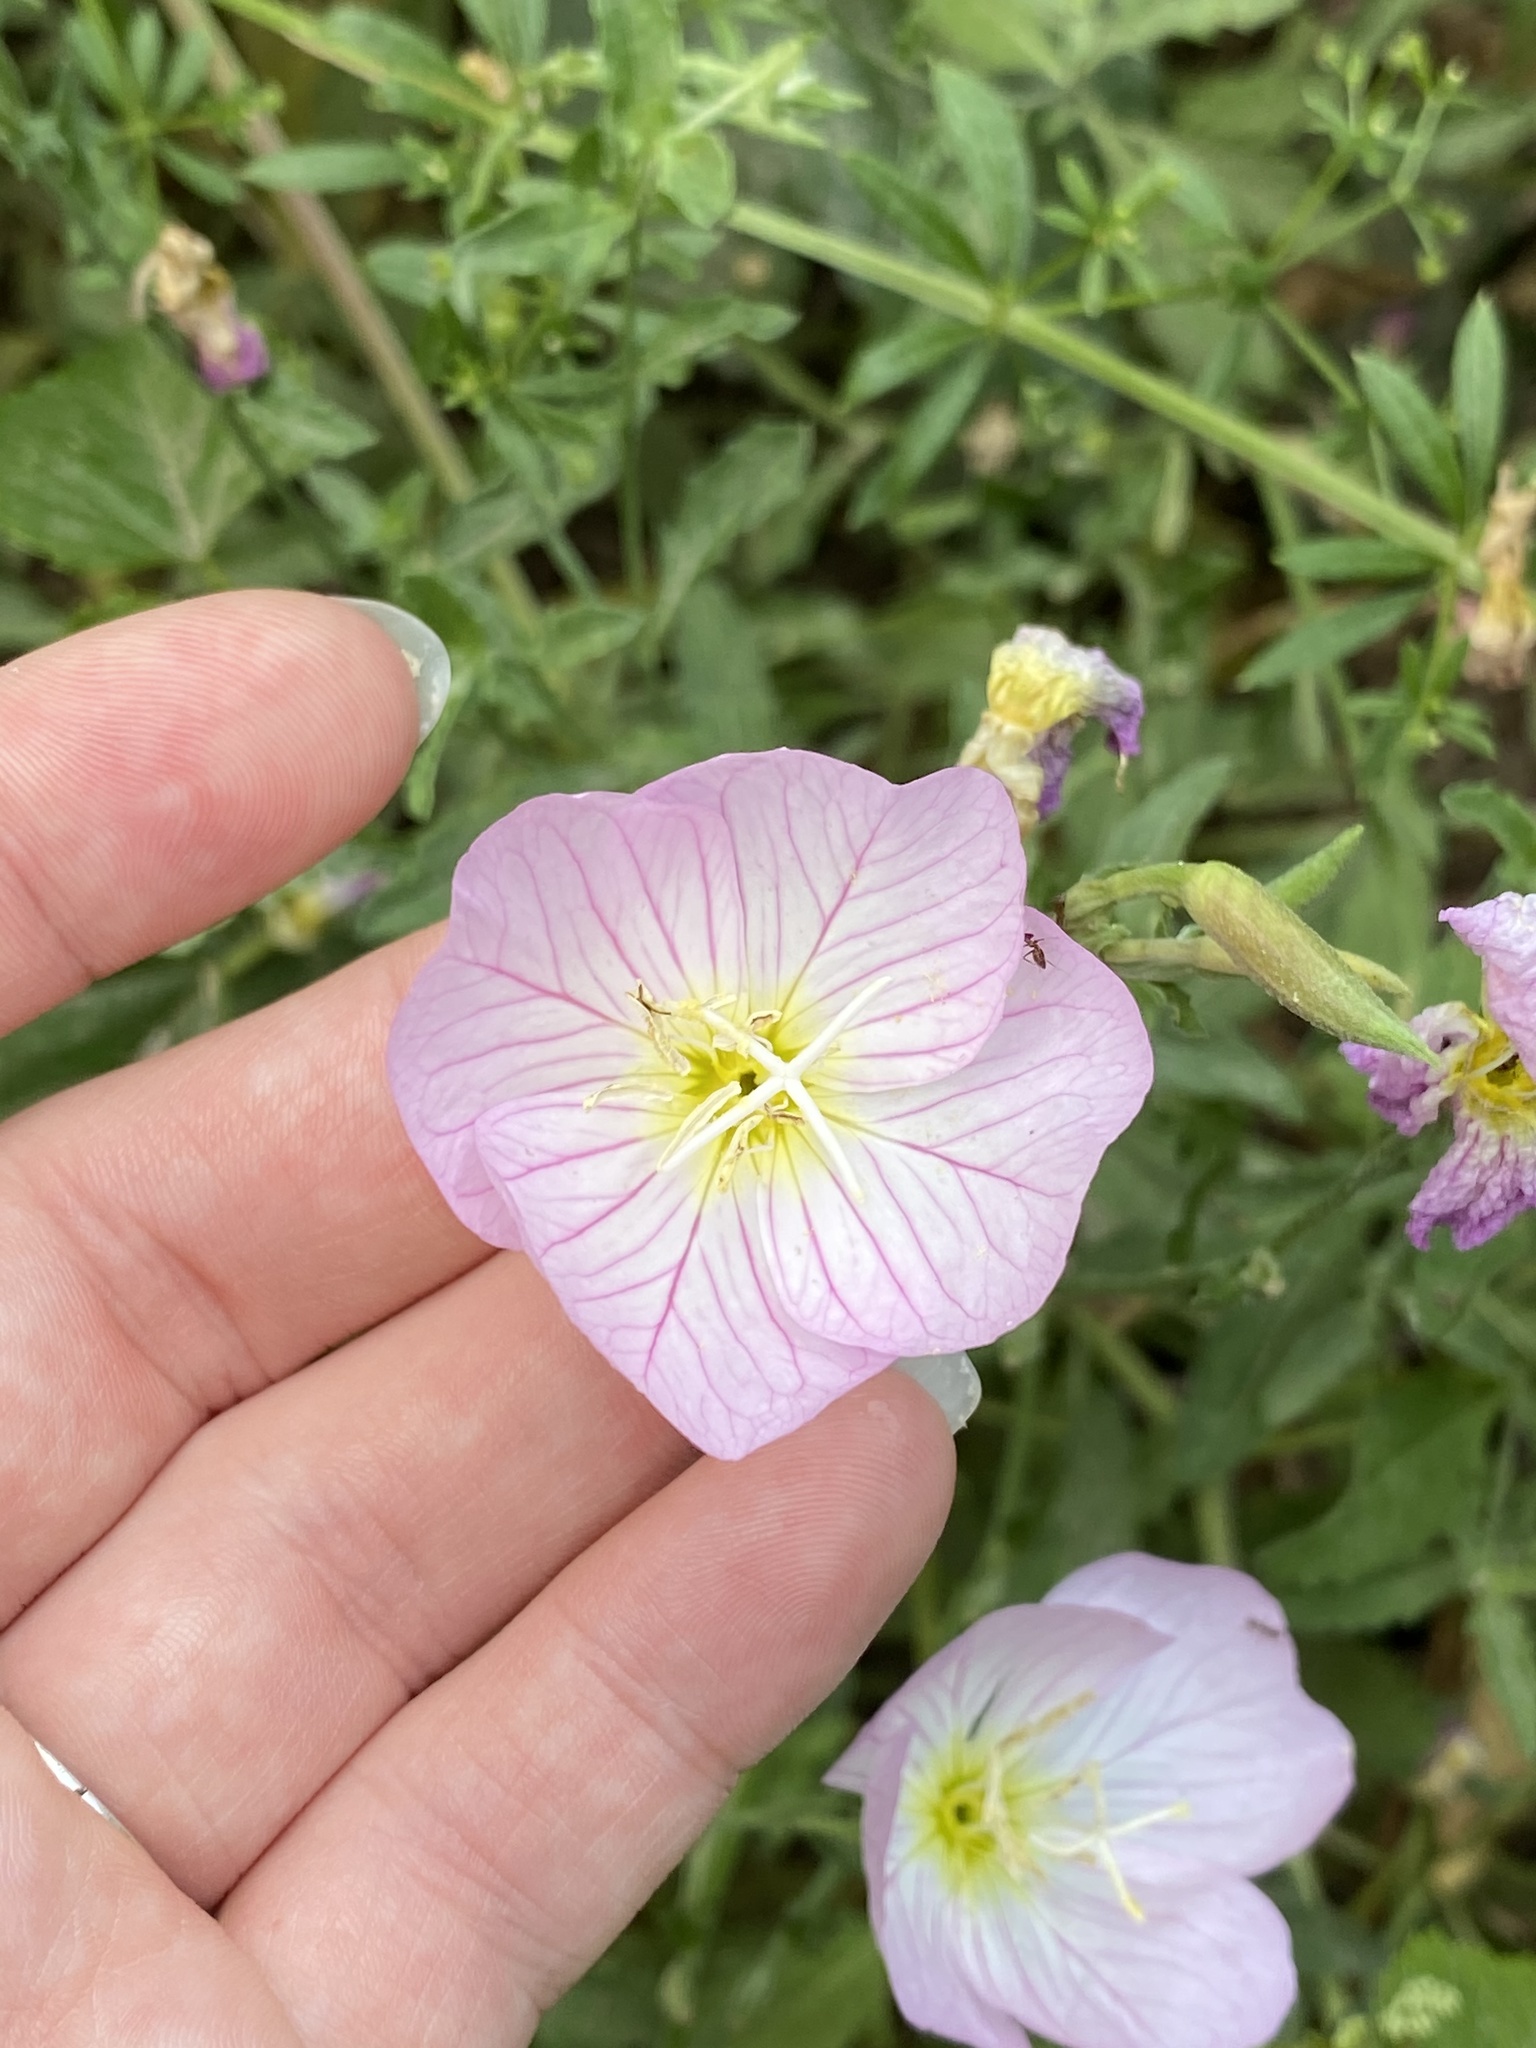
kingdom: Plantae
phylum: Tracheophyta
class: Magnoliopsida
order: Myrtales
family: Onagraceae
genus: Oenothera
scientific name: Oenothera speciosa
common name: White evening-primrose
